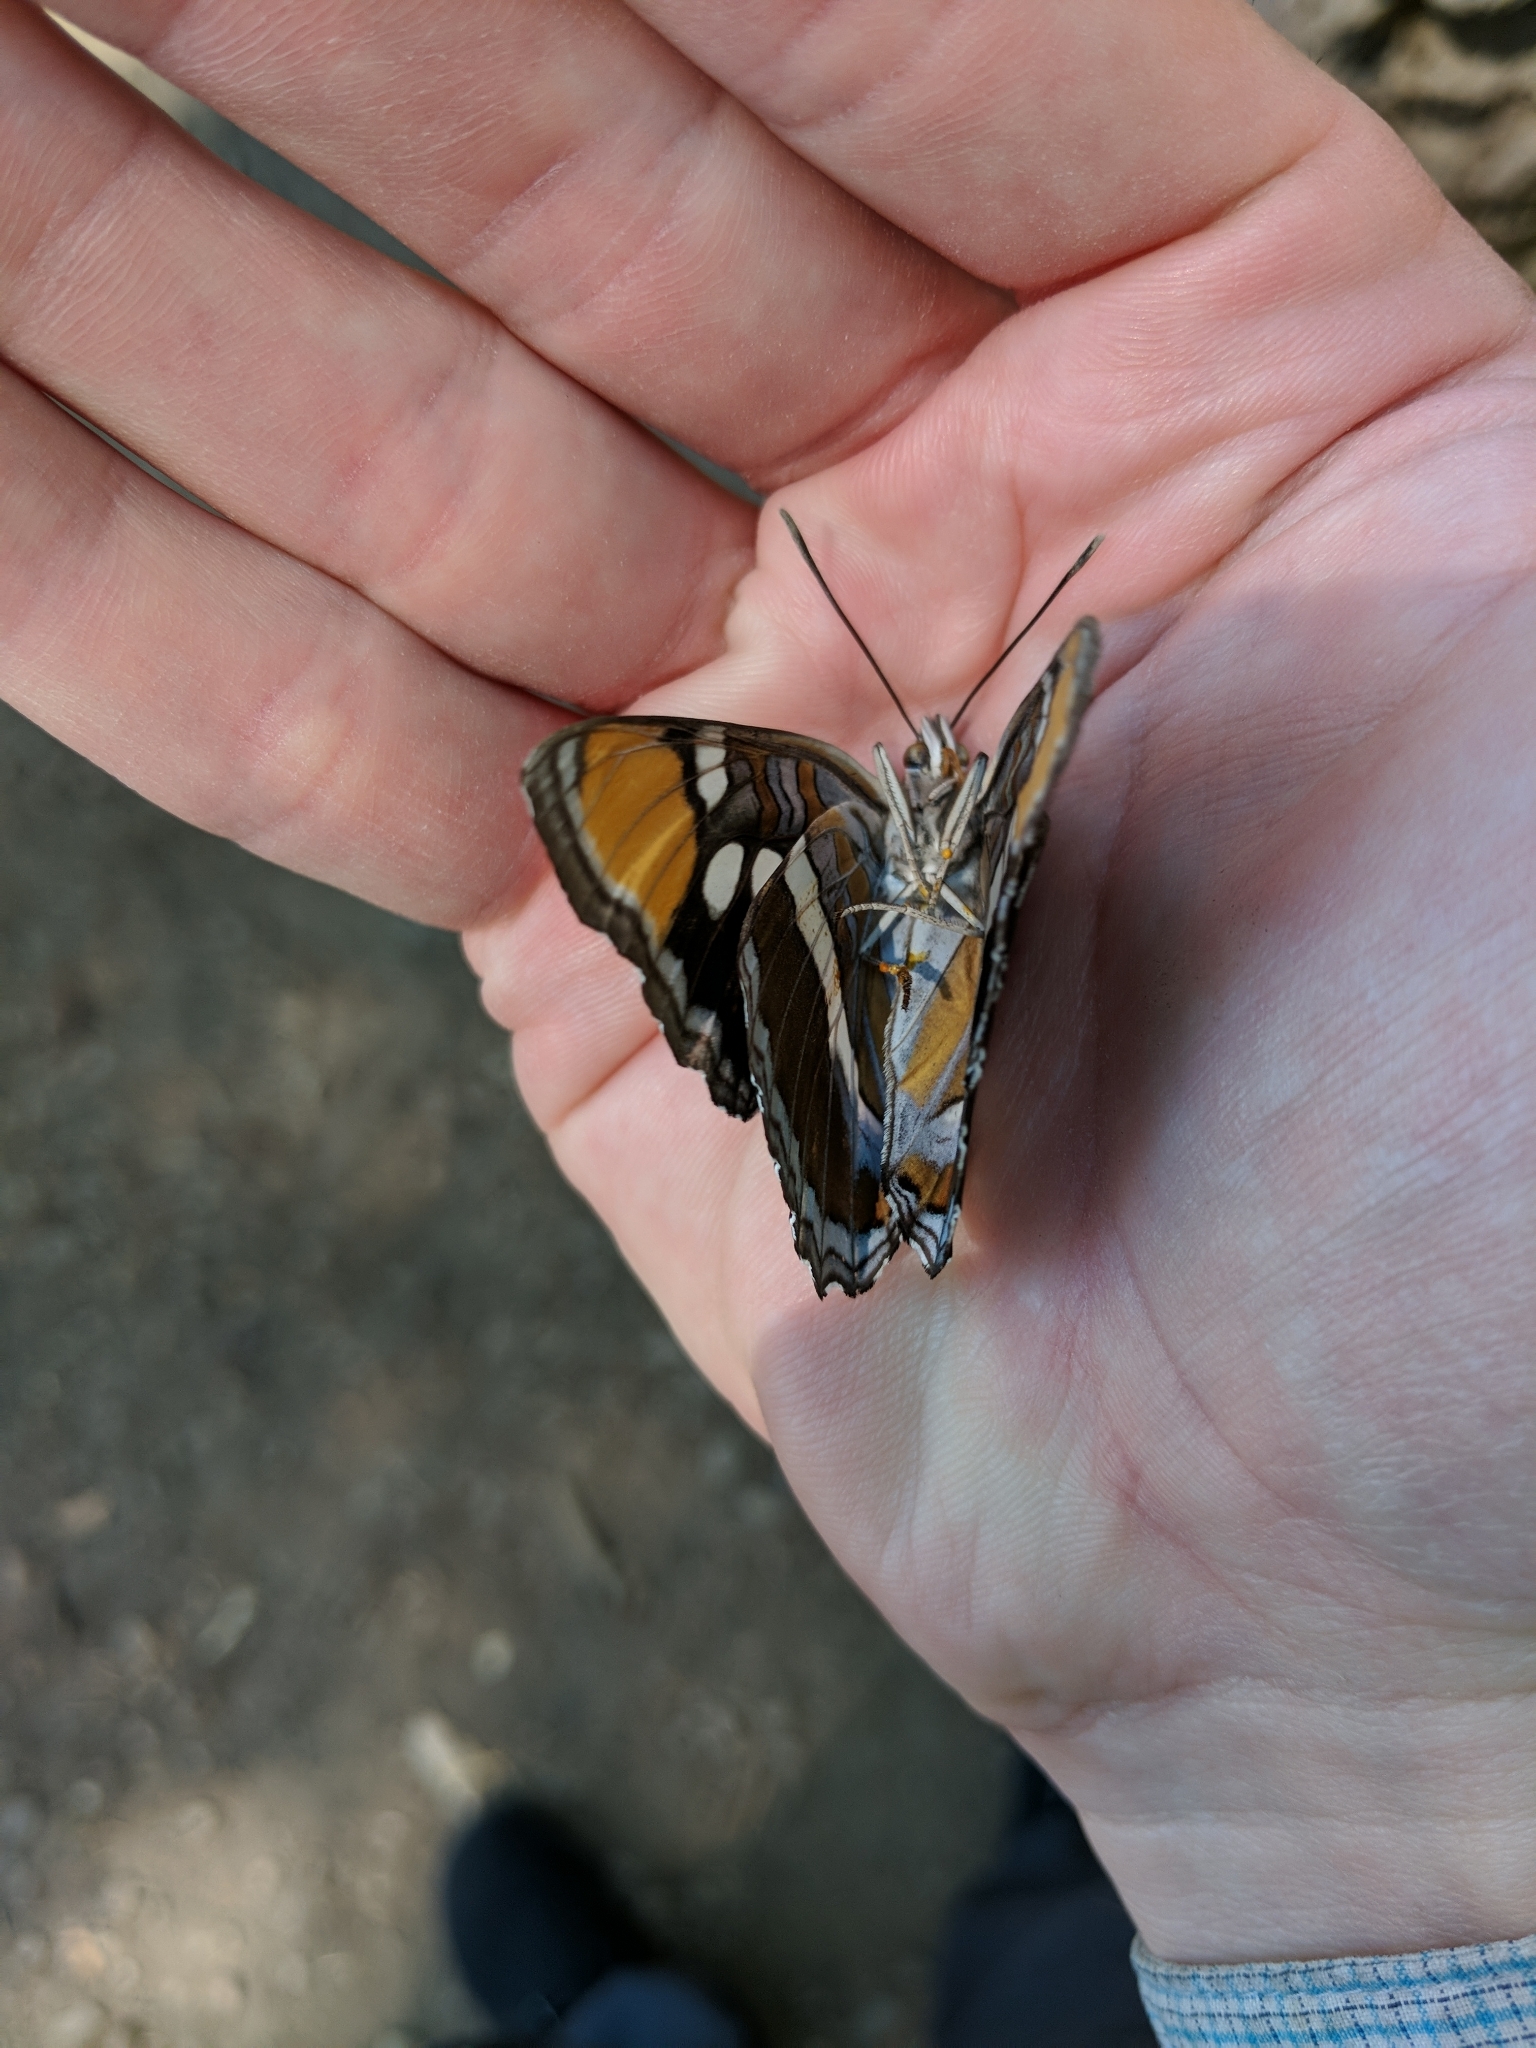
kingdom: Animalia
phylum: Arthropoda
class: Insecta
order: Lepidoptera
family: Nymphalidae
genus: Limenitis
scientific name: Limenitis bredowii
